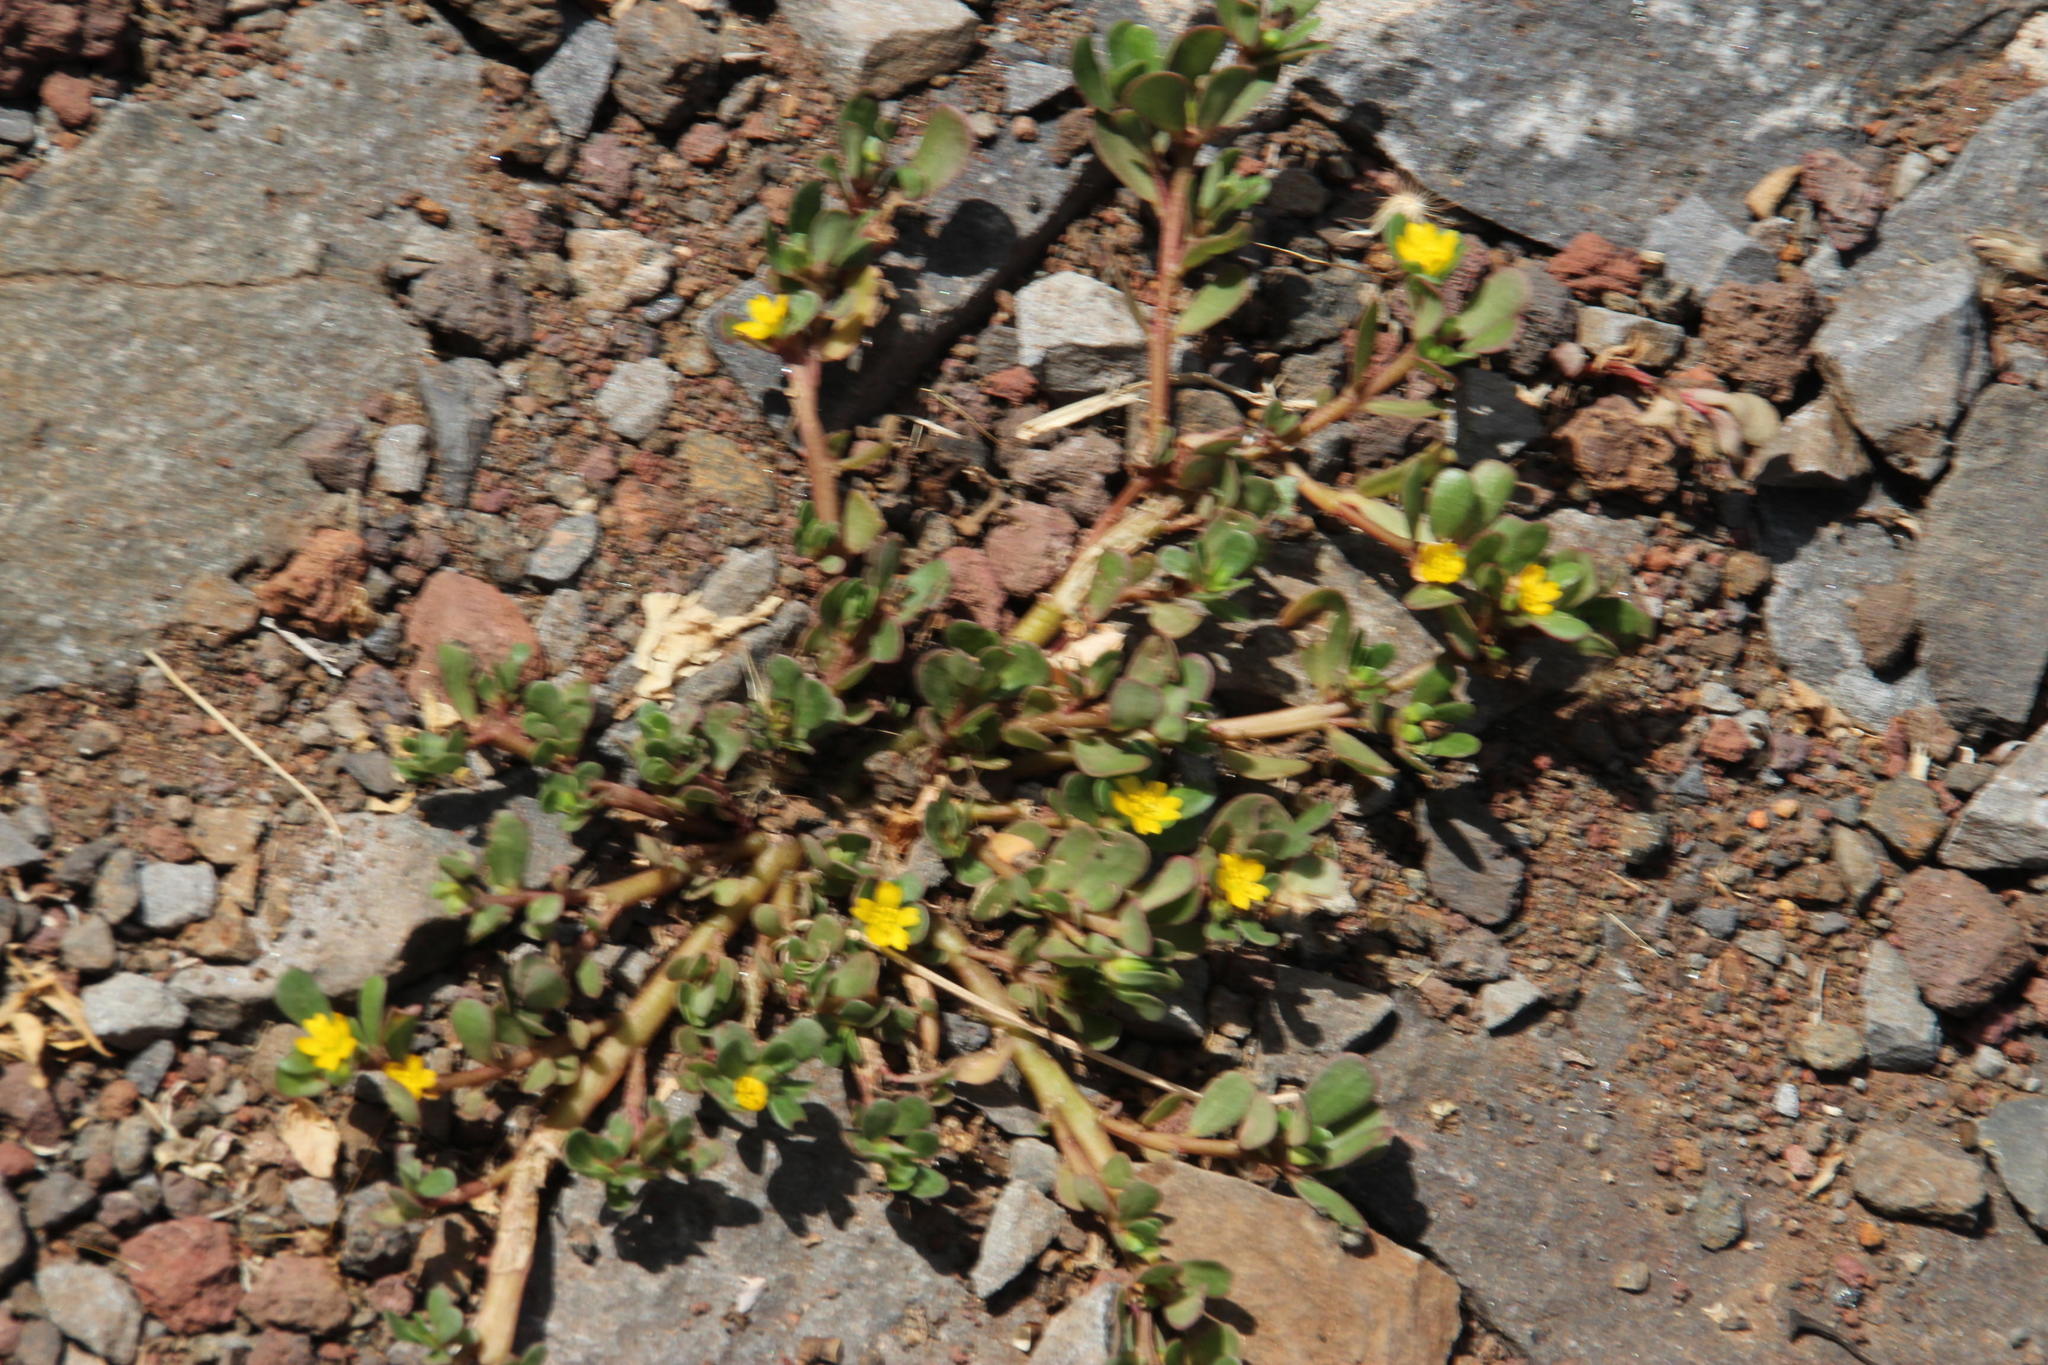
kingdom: Plantae
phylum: Tracheophyta
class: Magnoliopsida
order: Caryophyllales
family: Portulacaceae
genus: Portulaca
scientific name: Portulaca oleracea
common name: Common purslane
